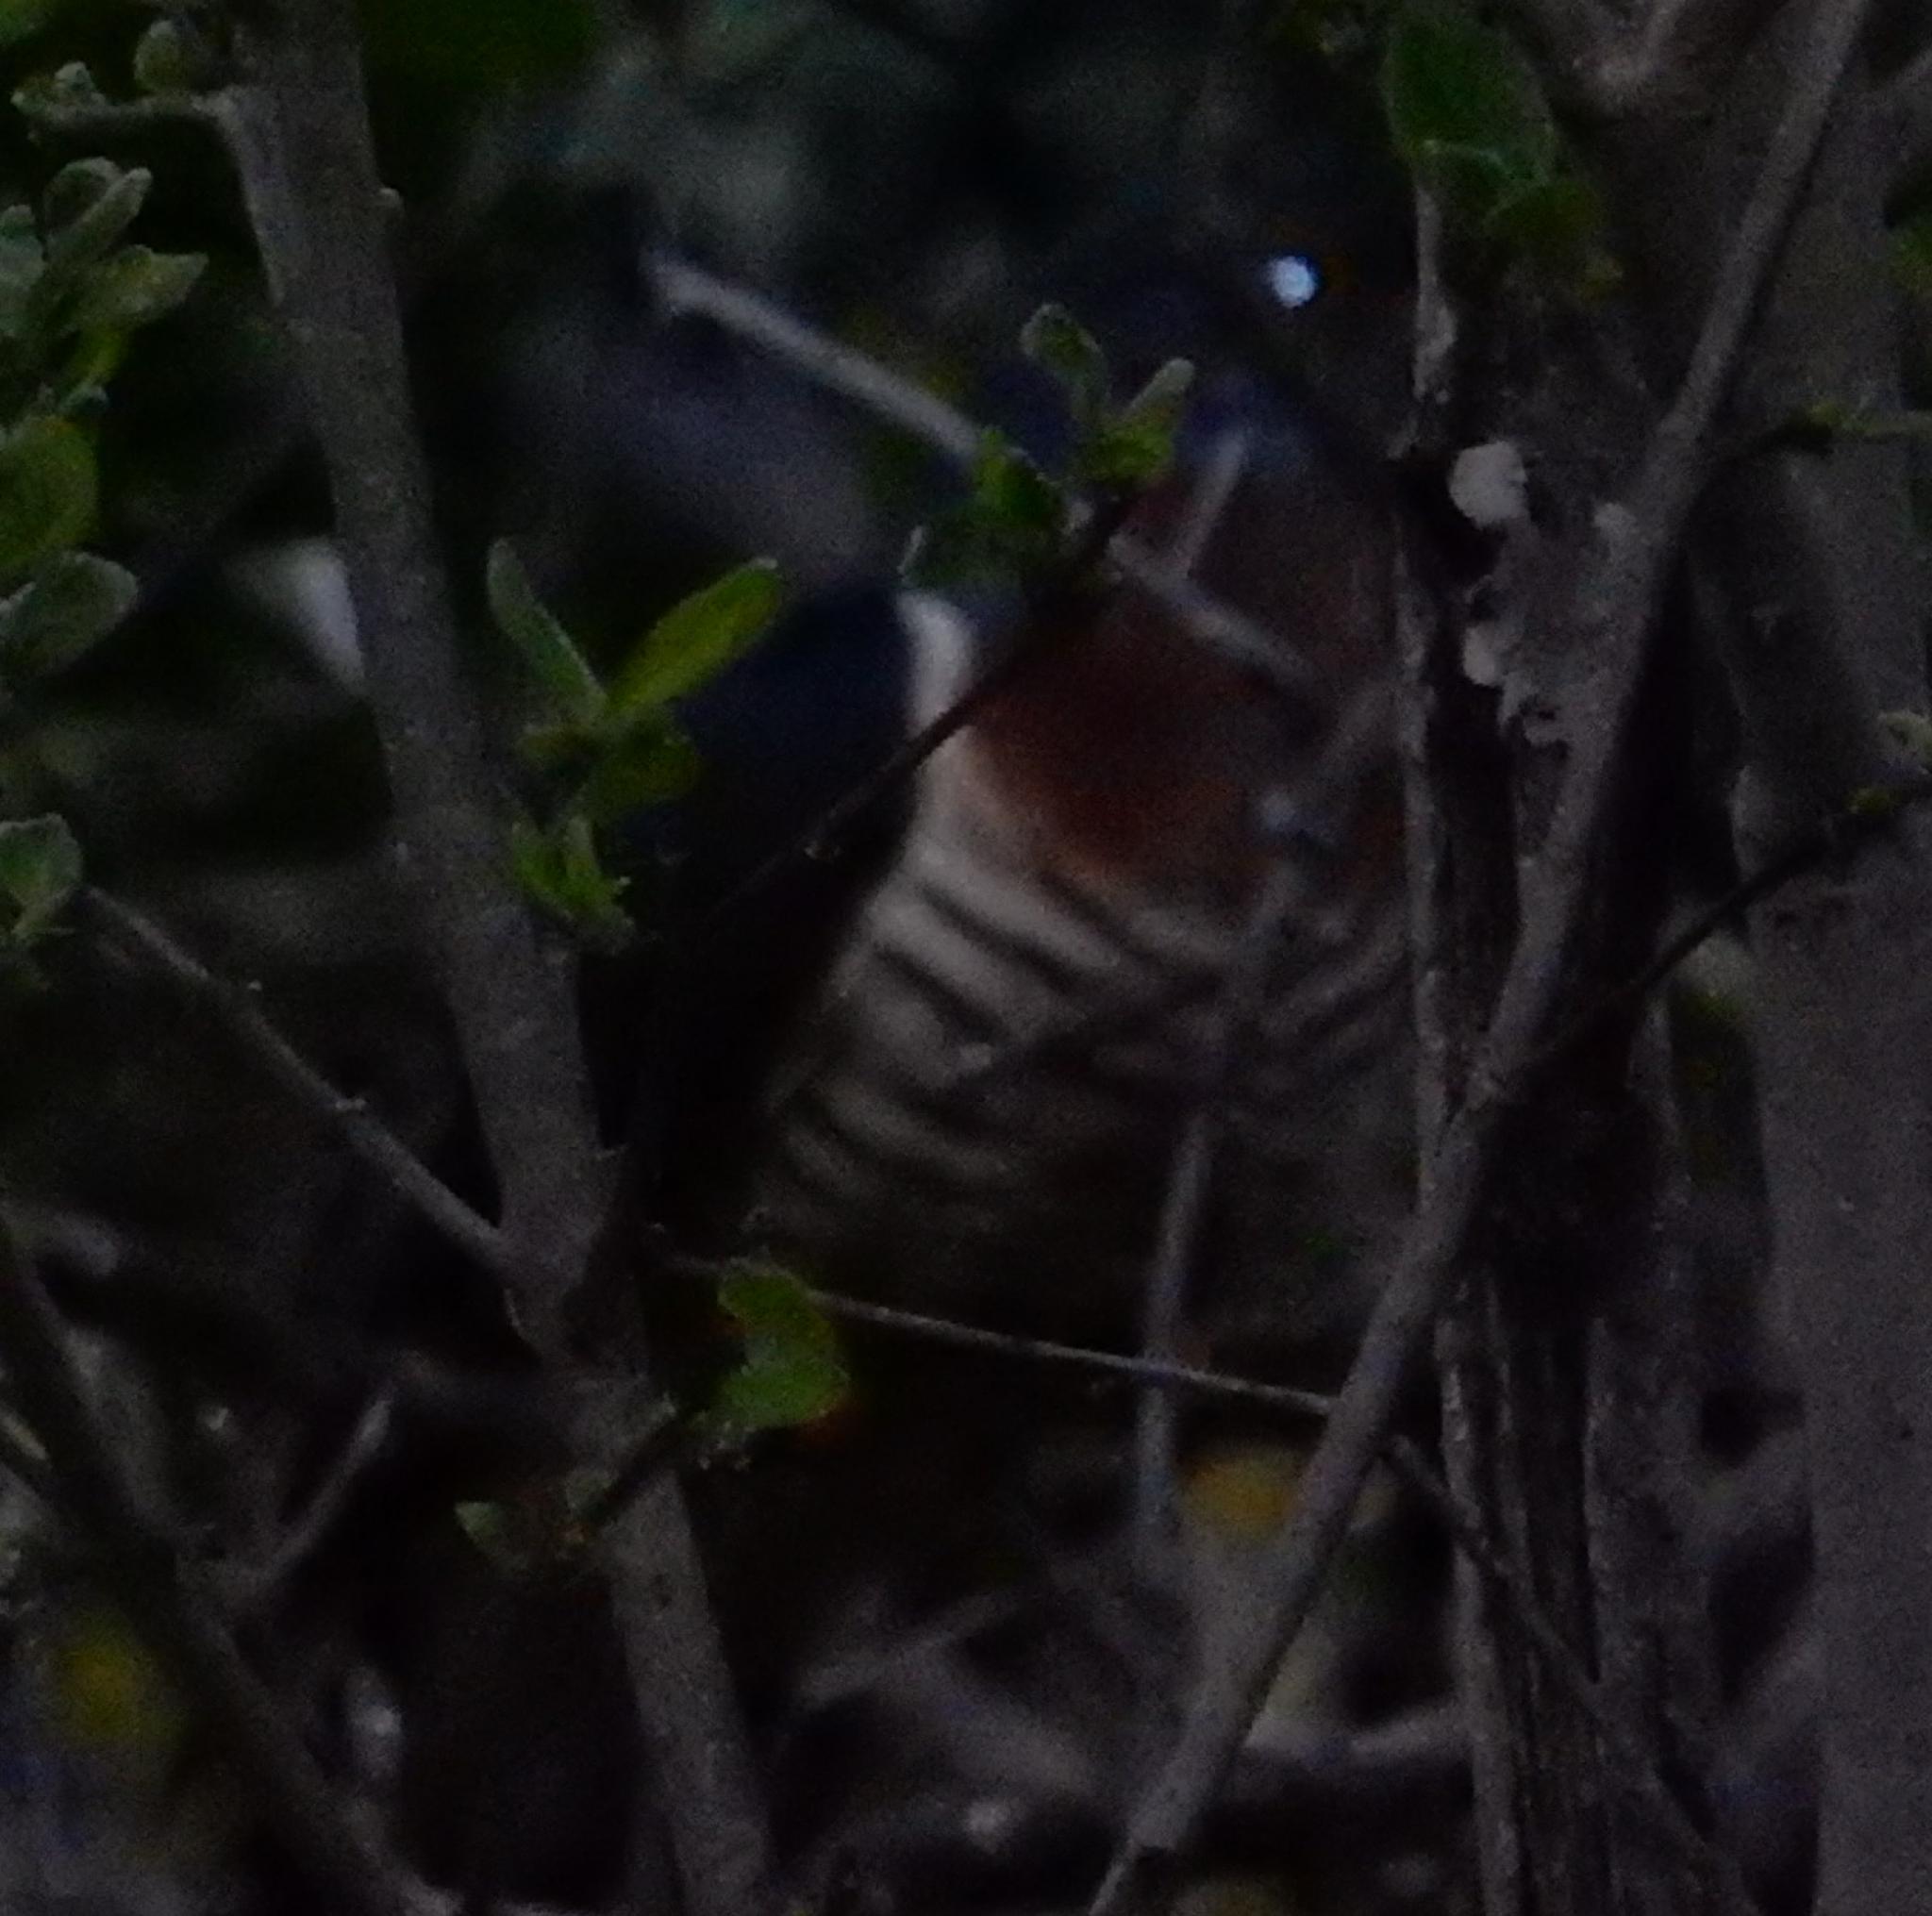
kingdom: Animalia
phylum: Chordata
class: Aves
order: Cuculiformes
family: Cuculidae
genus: Cuculus
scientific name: Cuculus solitarius
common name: Red-chested cuckoo
